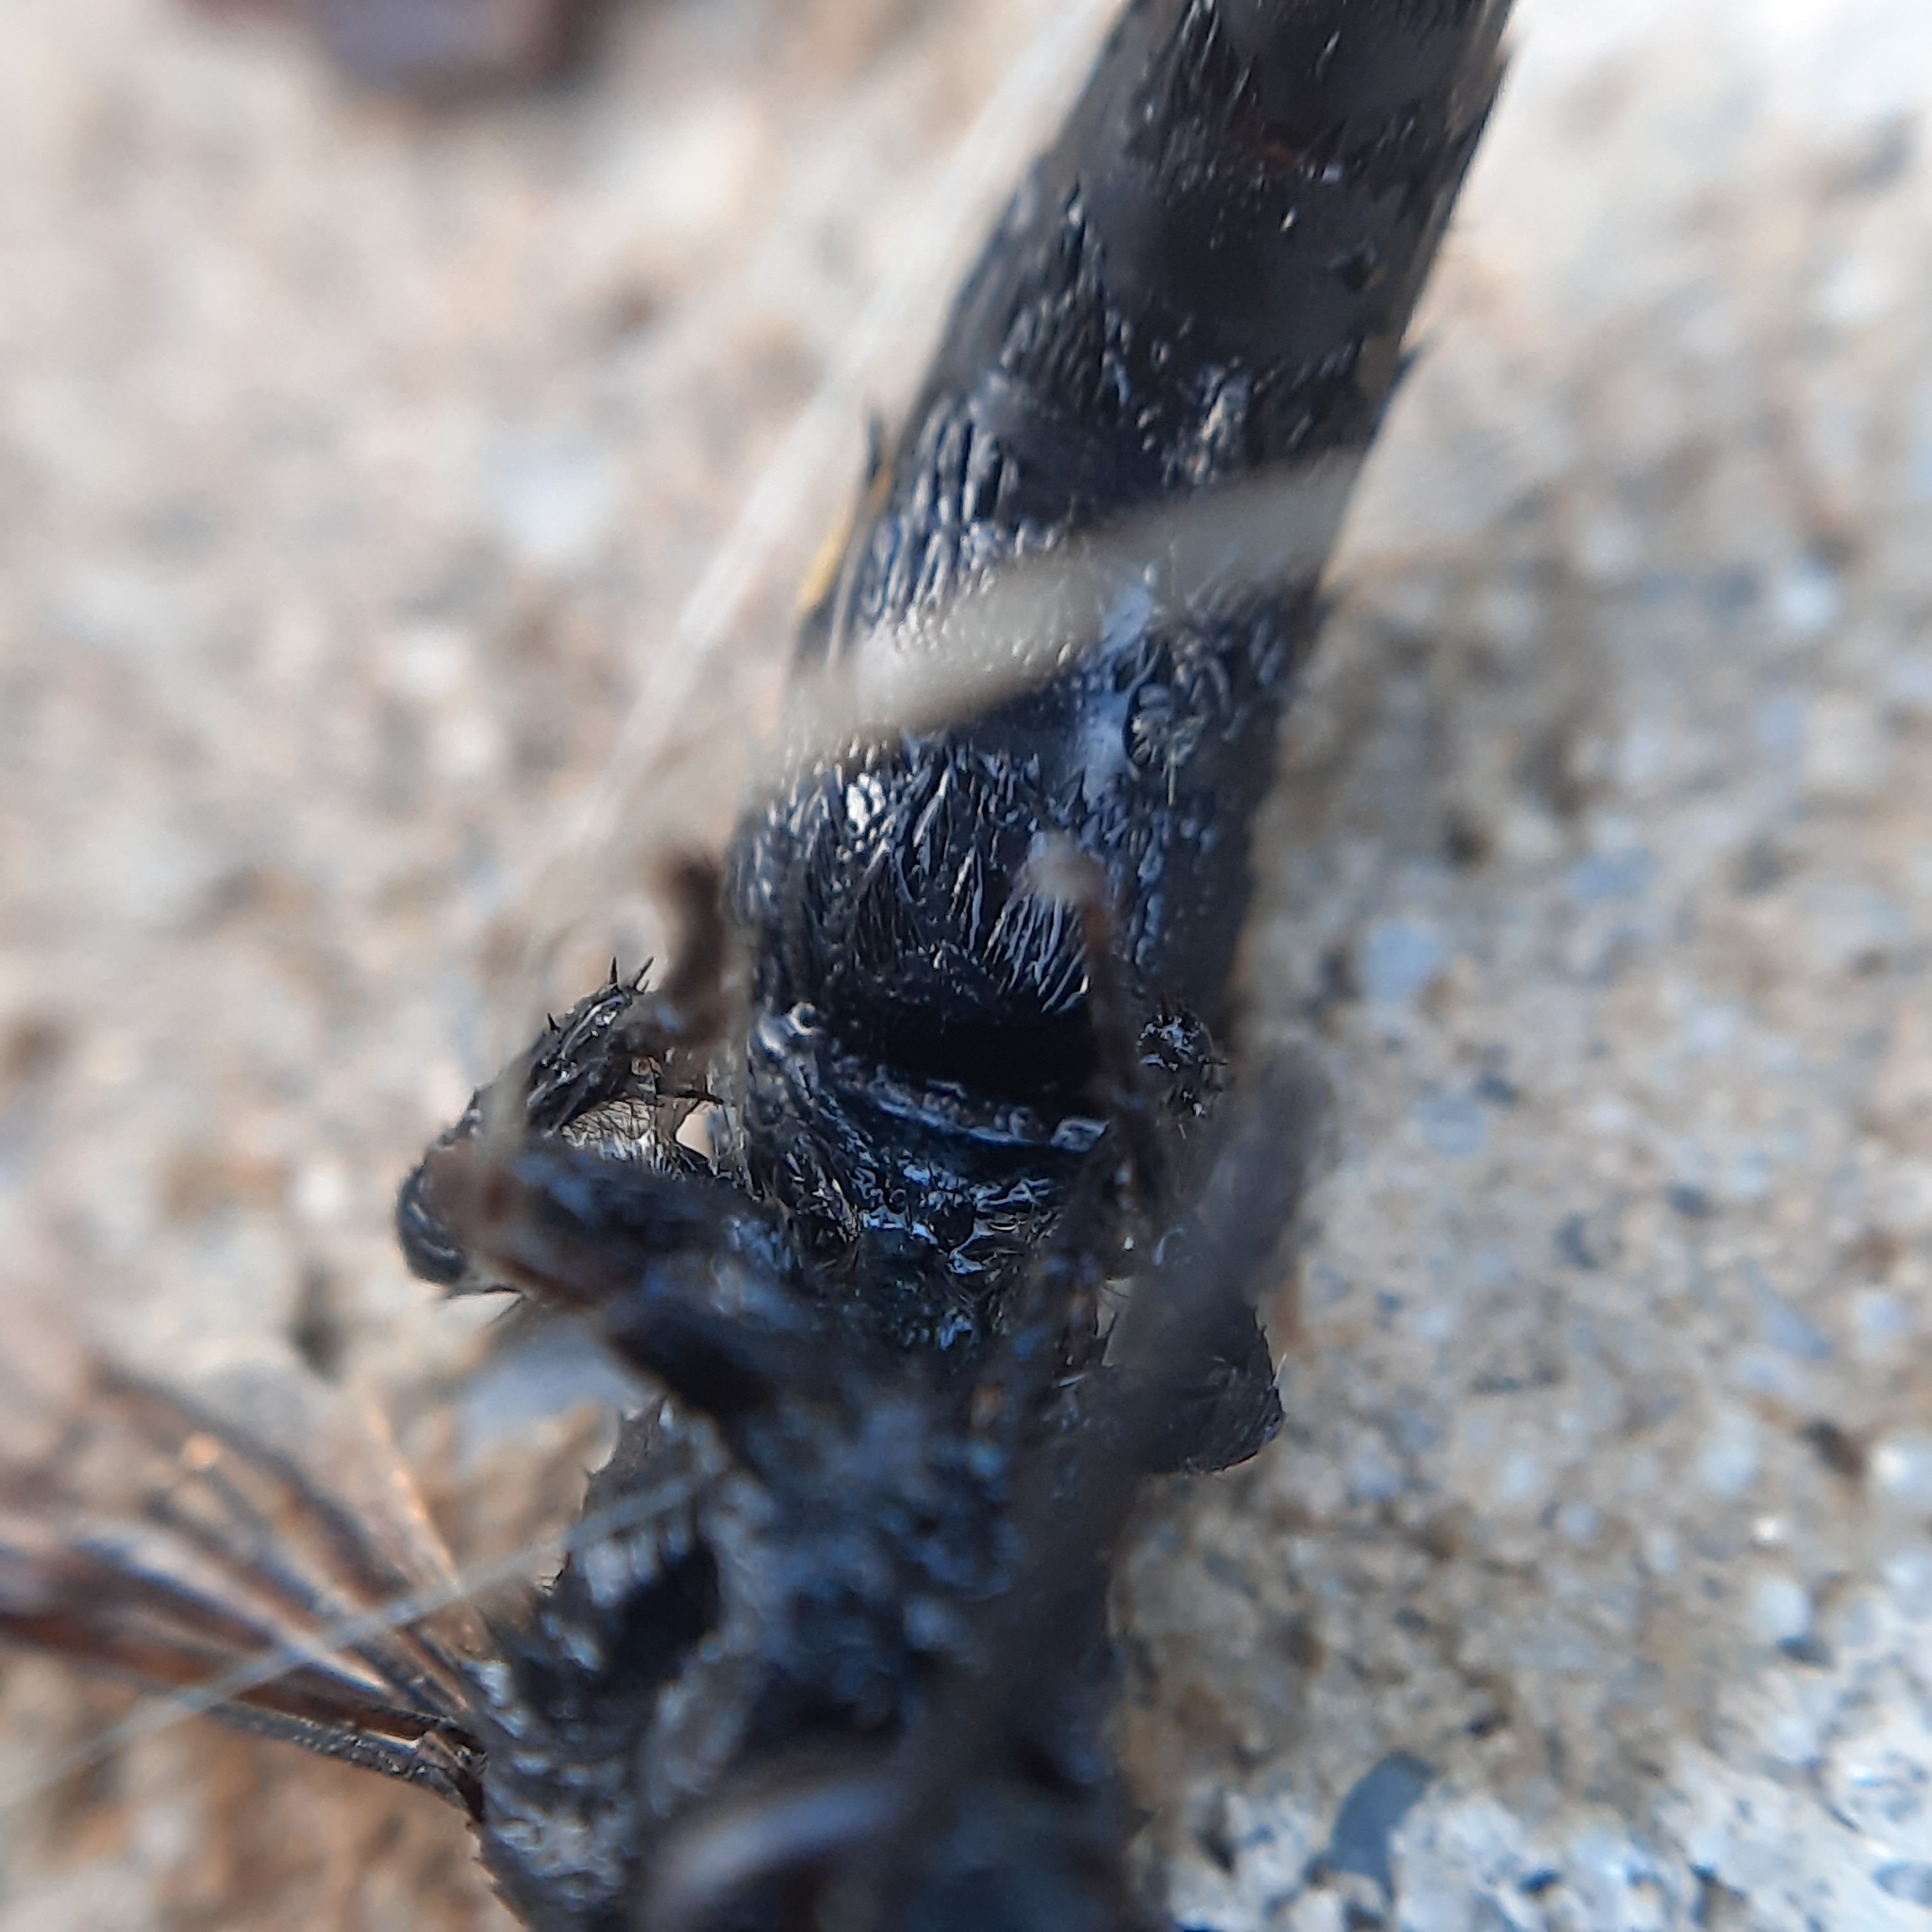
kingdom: Animalia
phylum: Arthropoda
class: Insecta
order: Hymenoptera
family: Scoliidae
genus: Scolia
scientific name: Scolia hirta
